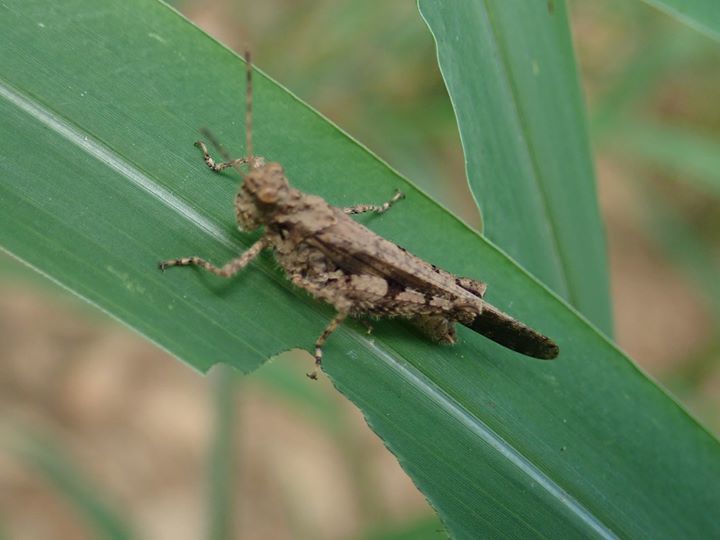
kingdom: Animalia
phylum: Arthropoda
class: Insecta
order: Orthoptera
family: Acrididae
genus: Trilophidia
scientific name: Trilophidia annulata
